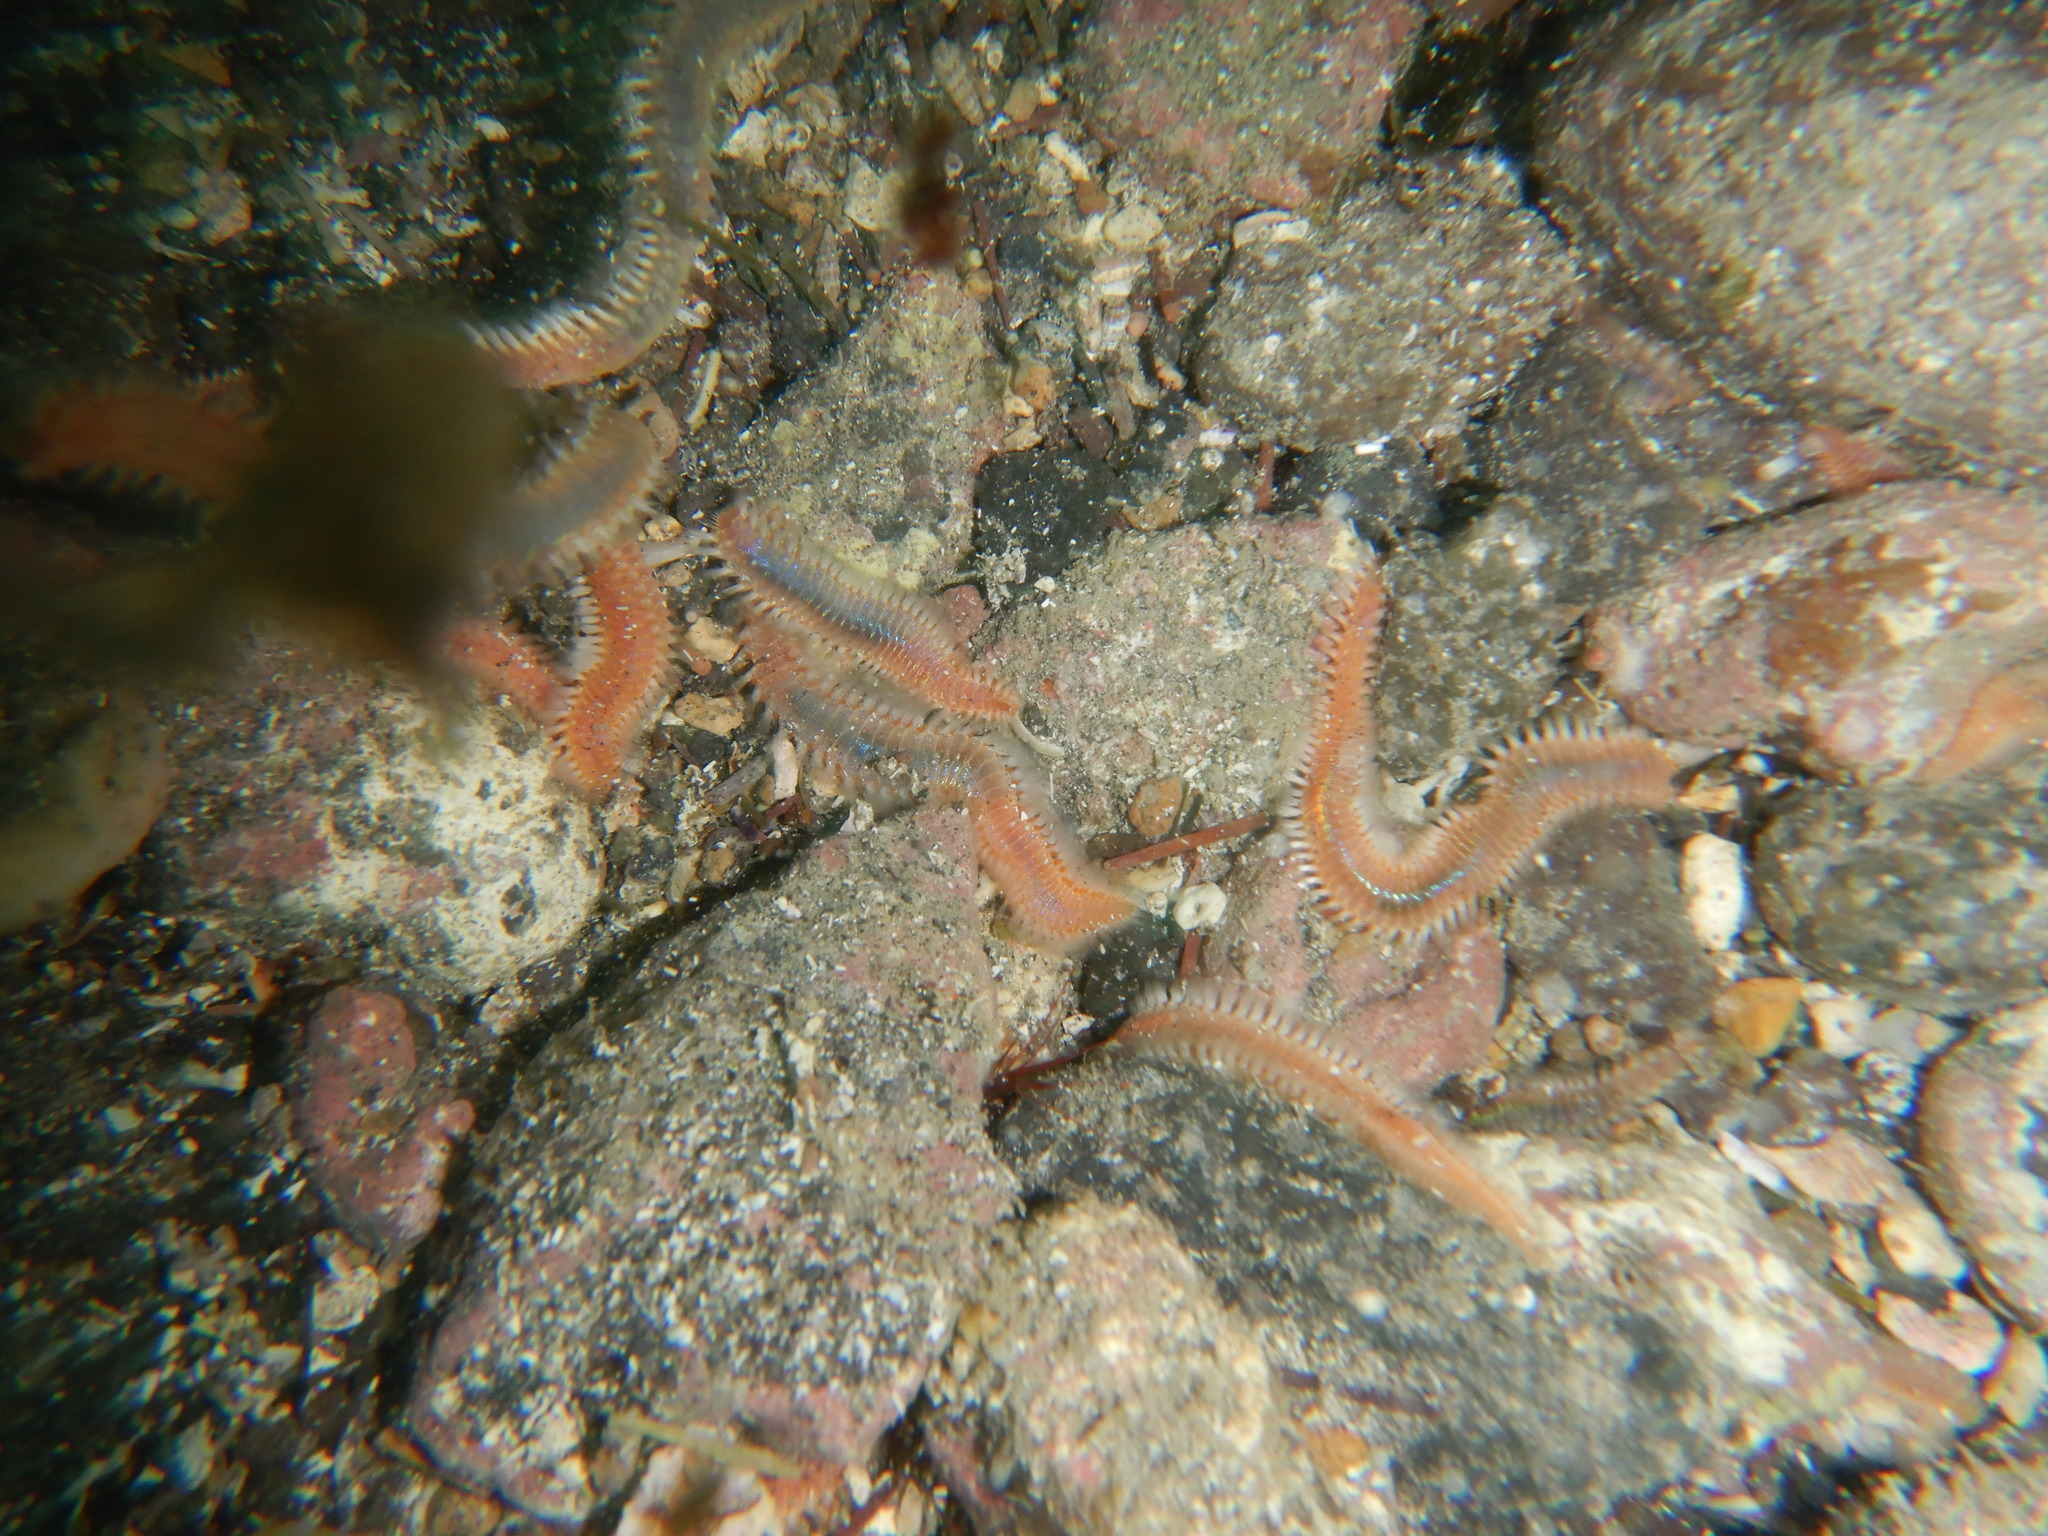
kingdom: Animalia
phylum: Annelida
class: Polychaeta
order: Amphinomida
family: Amphinomidae
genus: Eurythoe
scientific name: Eurythoe complanata
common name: Fireworm
